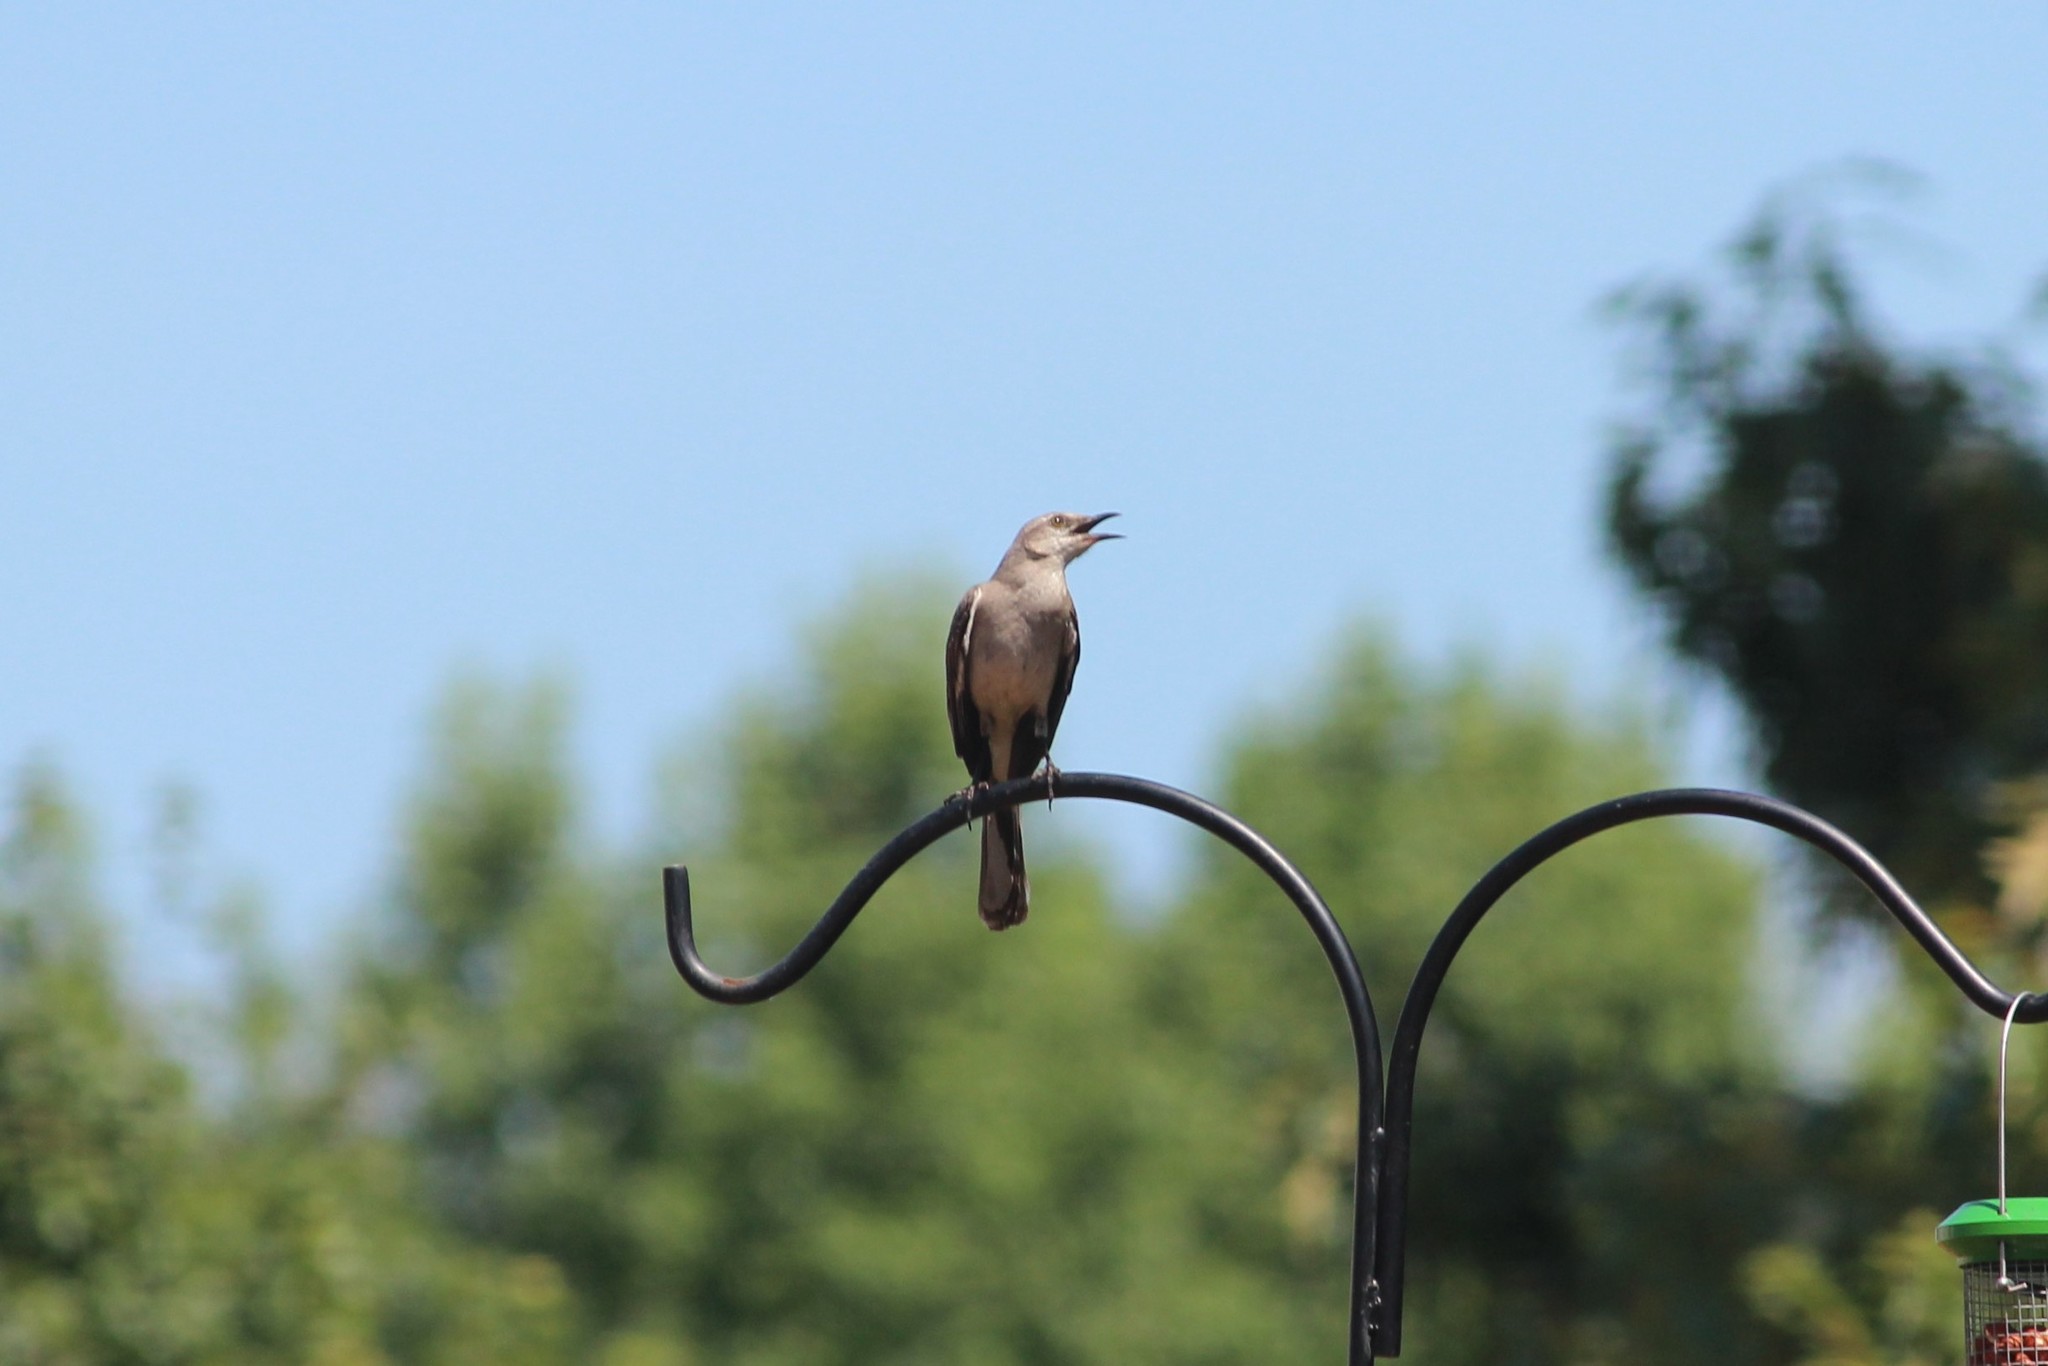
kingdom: Animalia
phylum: Chordata
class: Aves
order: Passeriformes
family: Mimidae
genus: Mimus
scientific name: Mimus polyglottos
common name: Northern mockingbird
